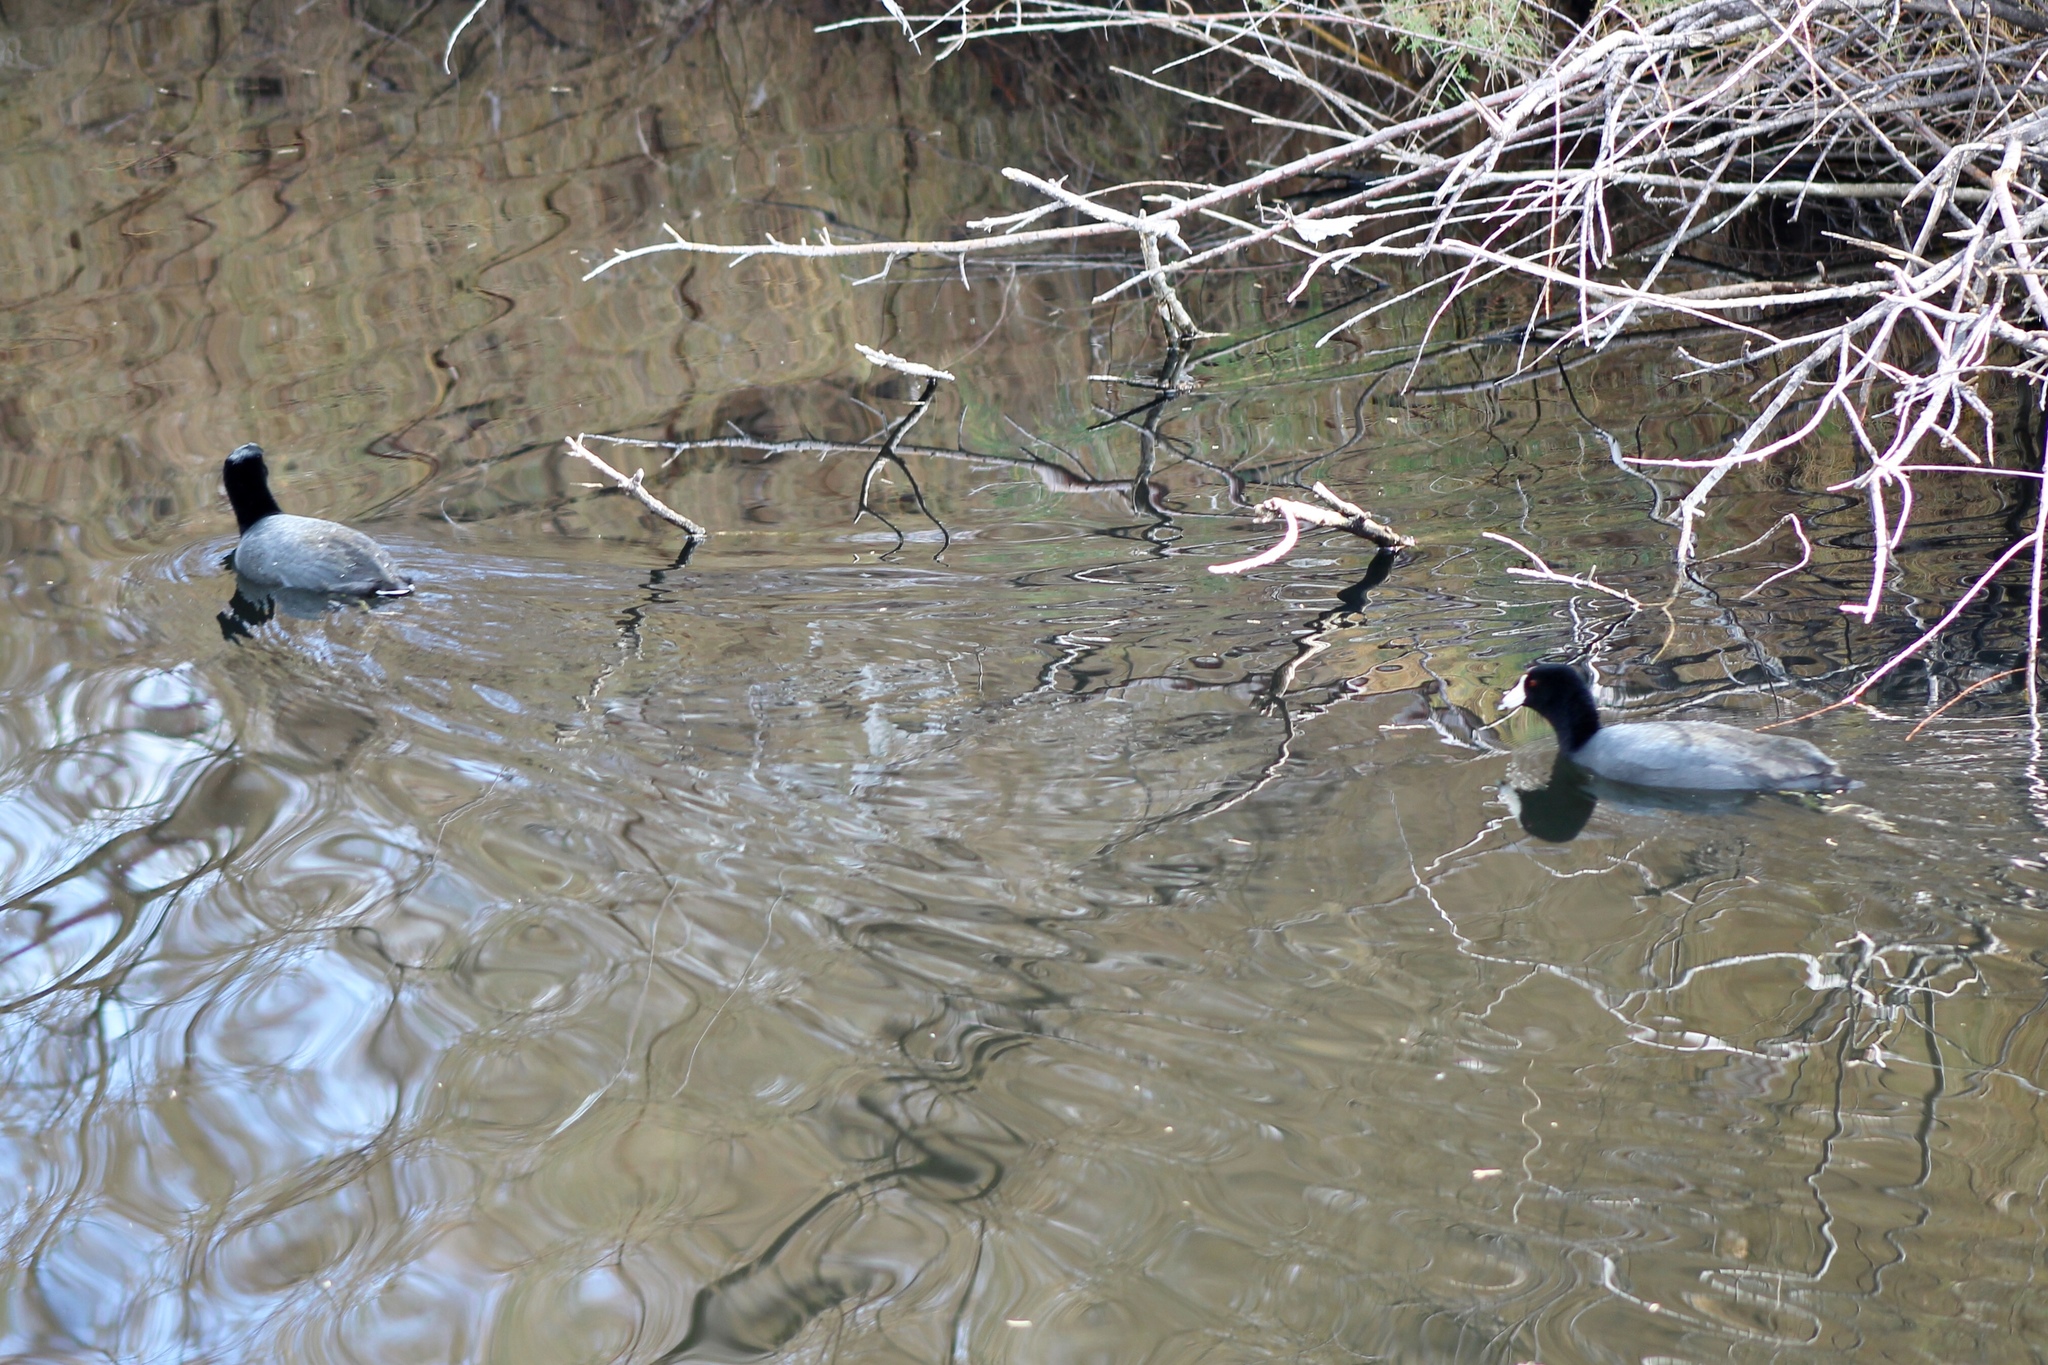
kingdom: Animalia
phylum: Chordata
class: Aves
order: Gruiformes
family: Rallidae
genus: Fulica
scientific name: Fulica americana
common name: American coot
